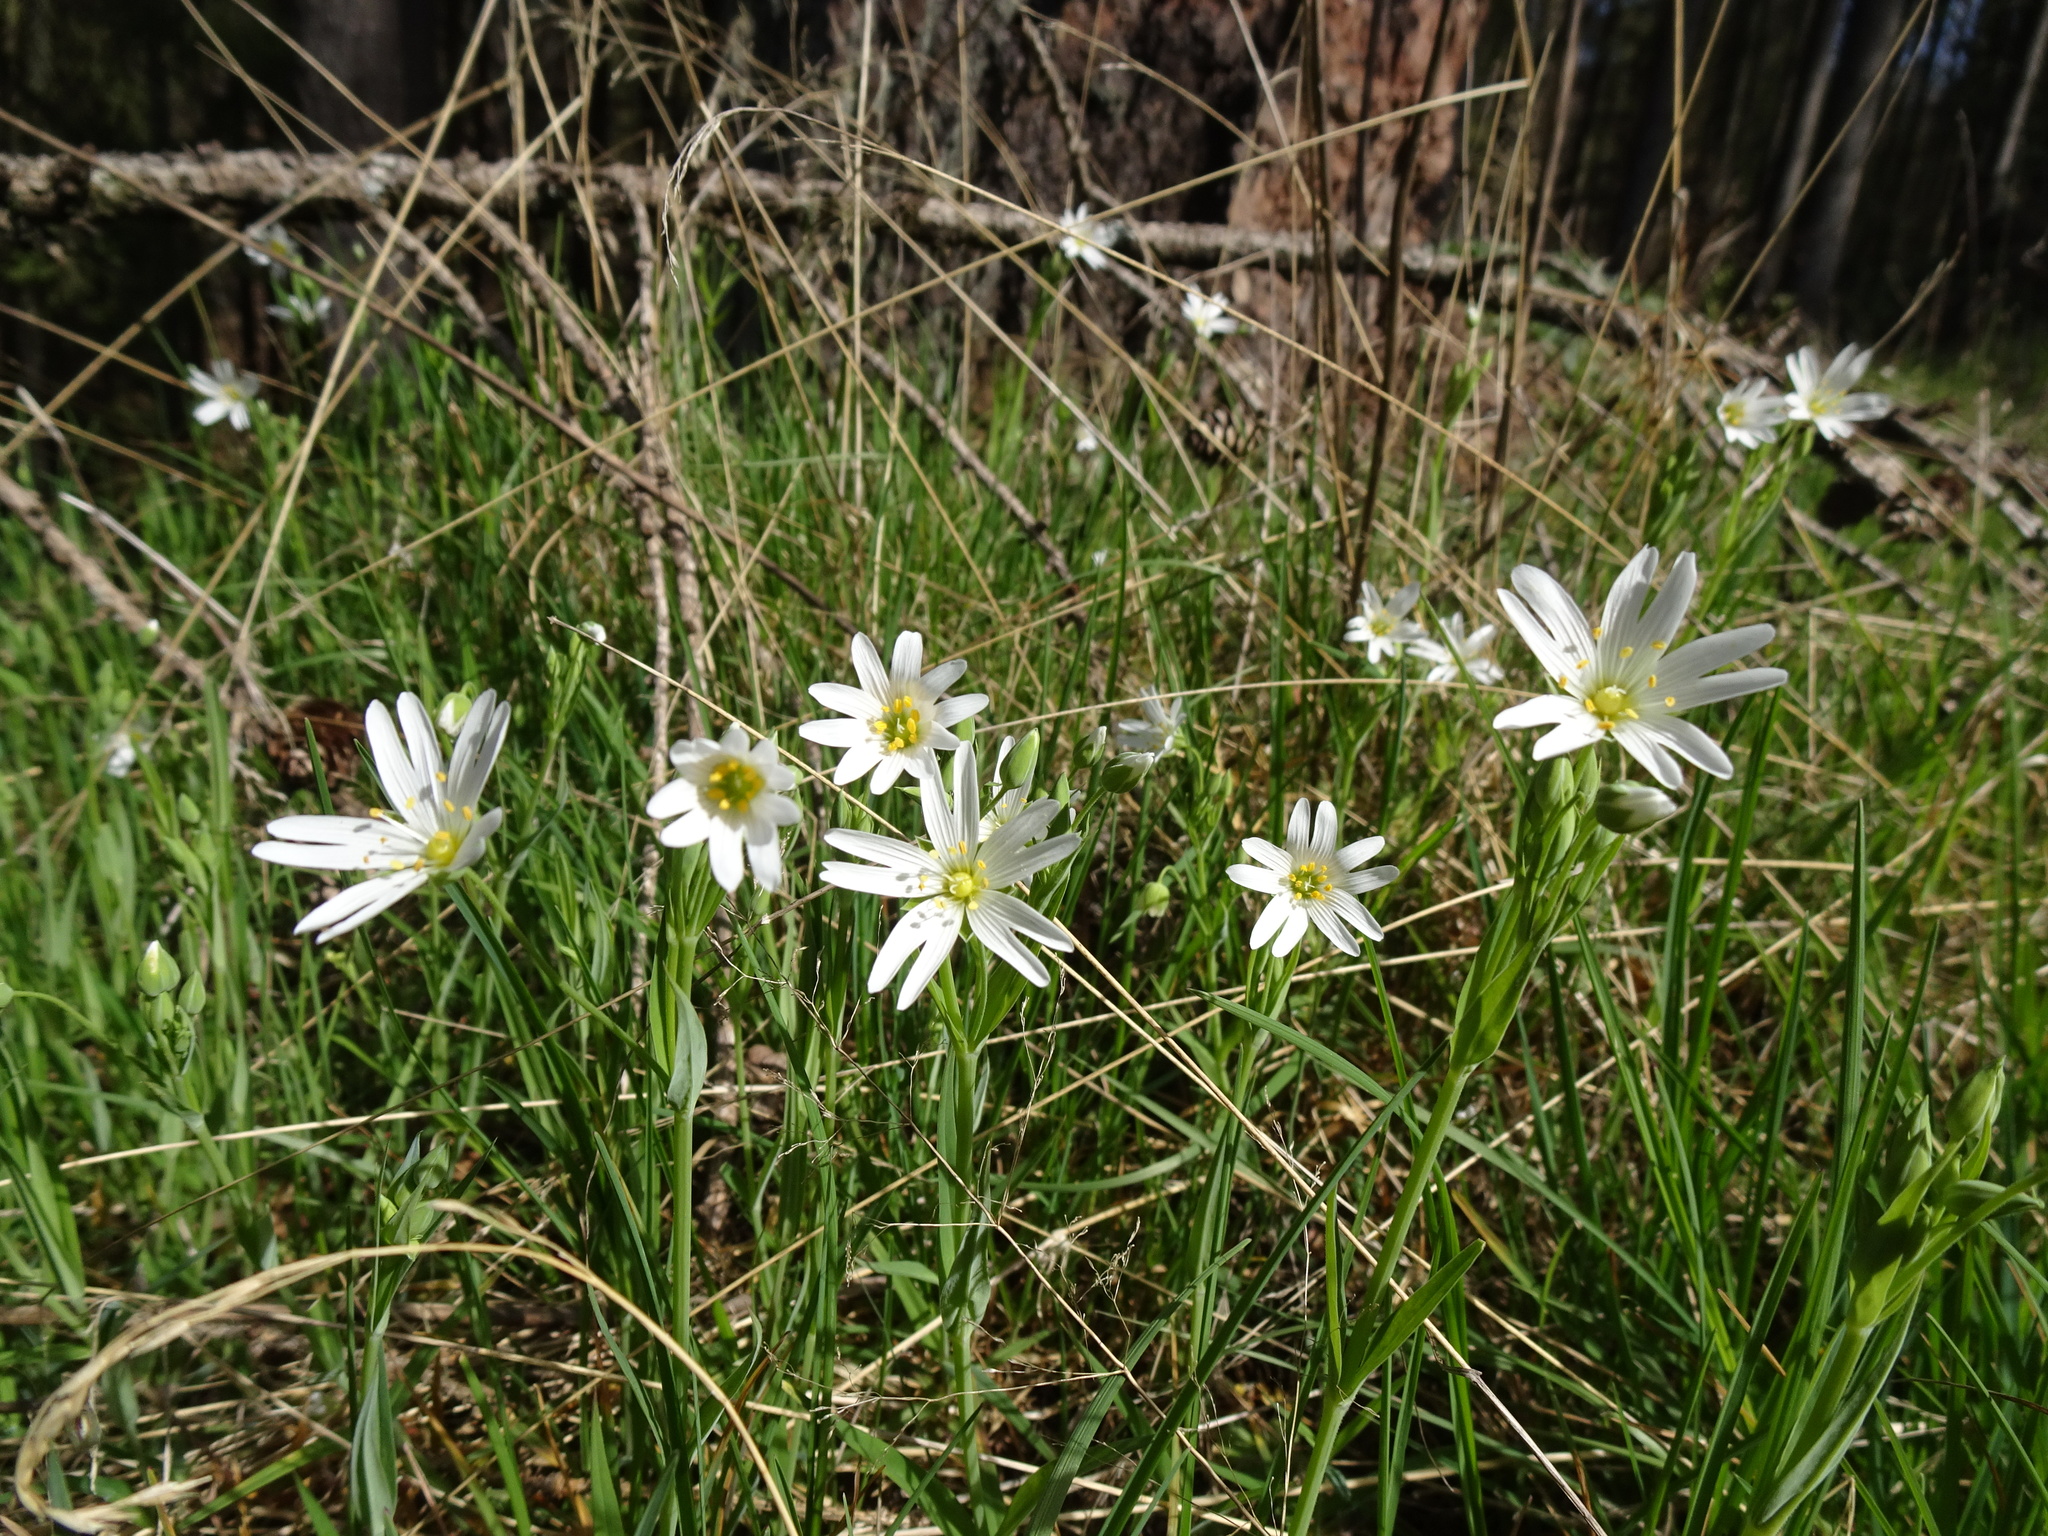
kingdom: Plantae
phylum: Tracheophyta
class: Magnoliopsida
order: Caryophyllales
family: Caryophyllaceae
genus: Rabelera
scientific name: Rabelera holostea
